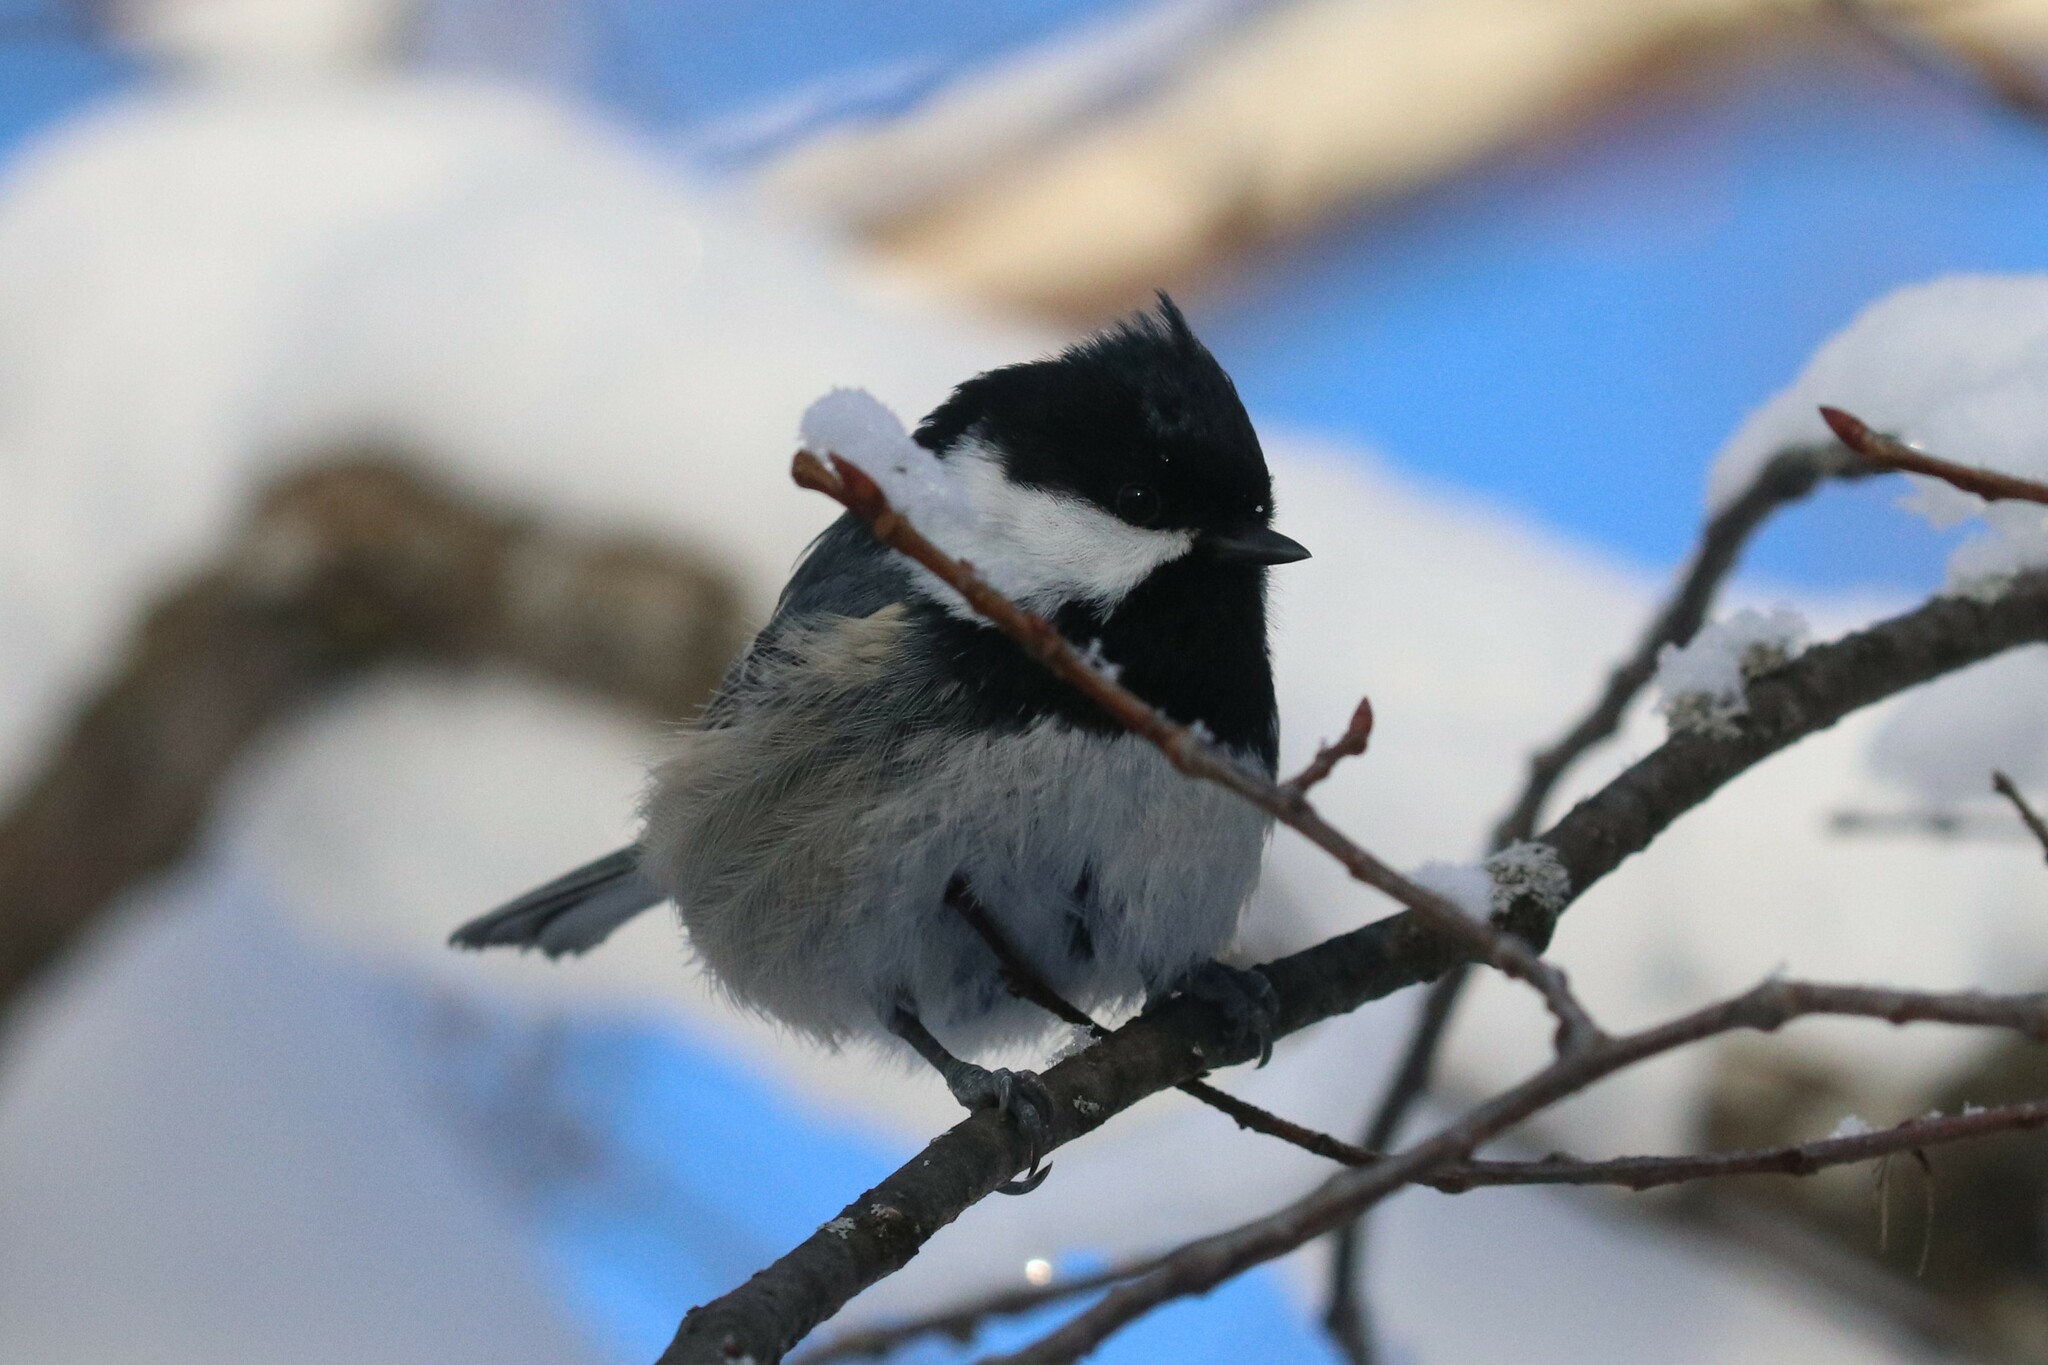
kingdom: Animalia
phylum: Chordata
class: Aves
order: Passeriformes
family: Paridae
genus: Periparus
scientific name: Periparus ater
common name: Coal tit
